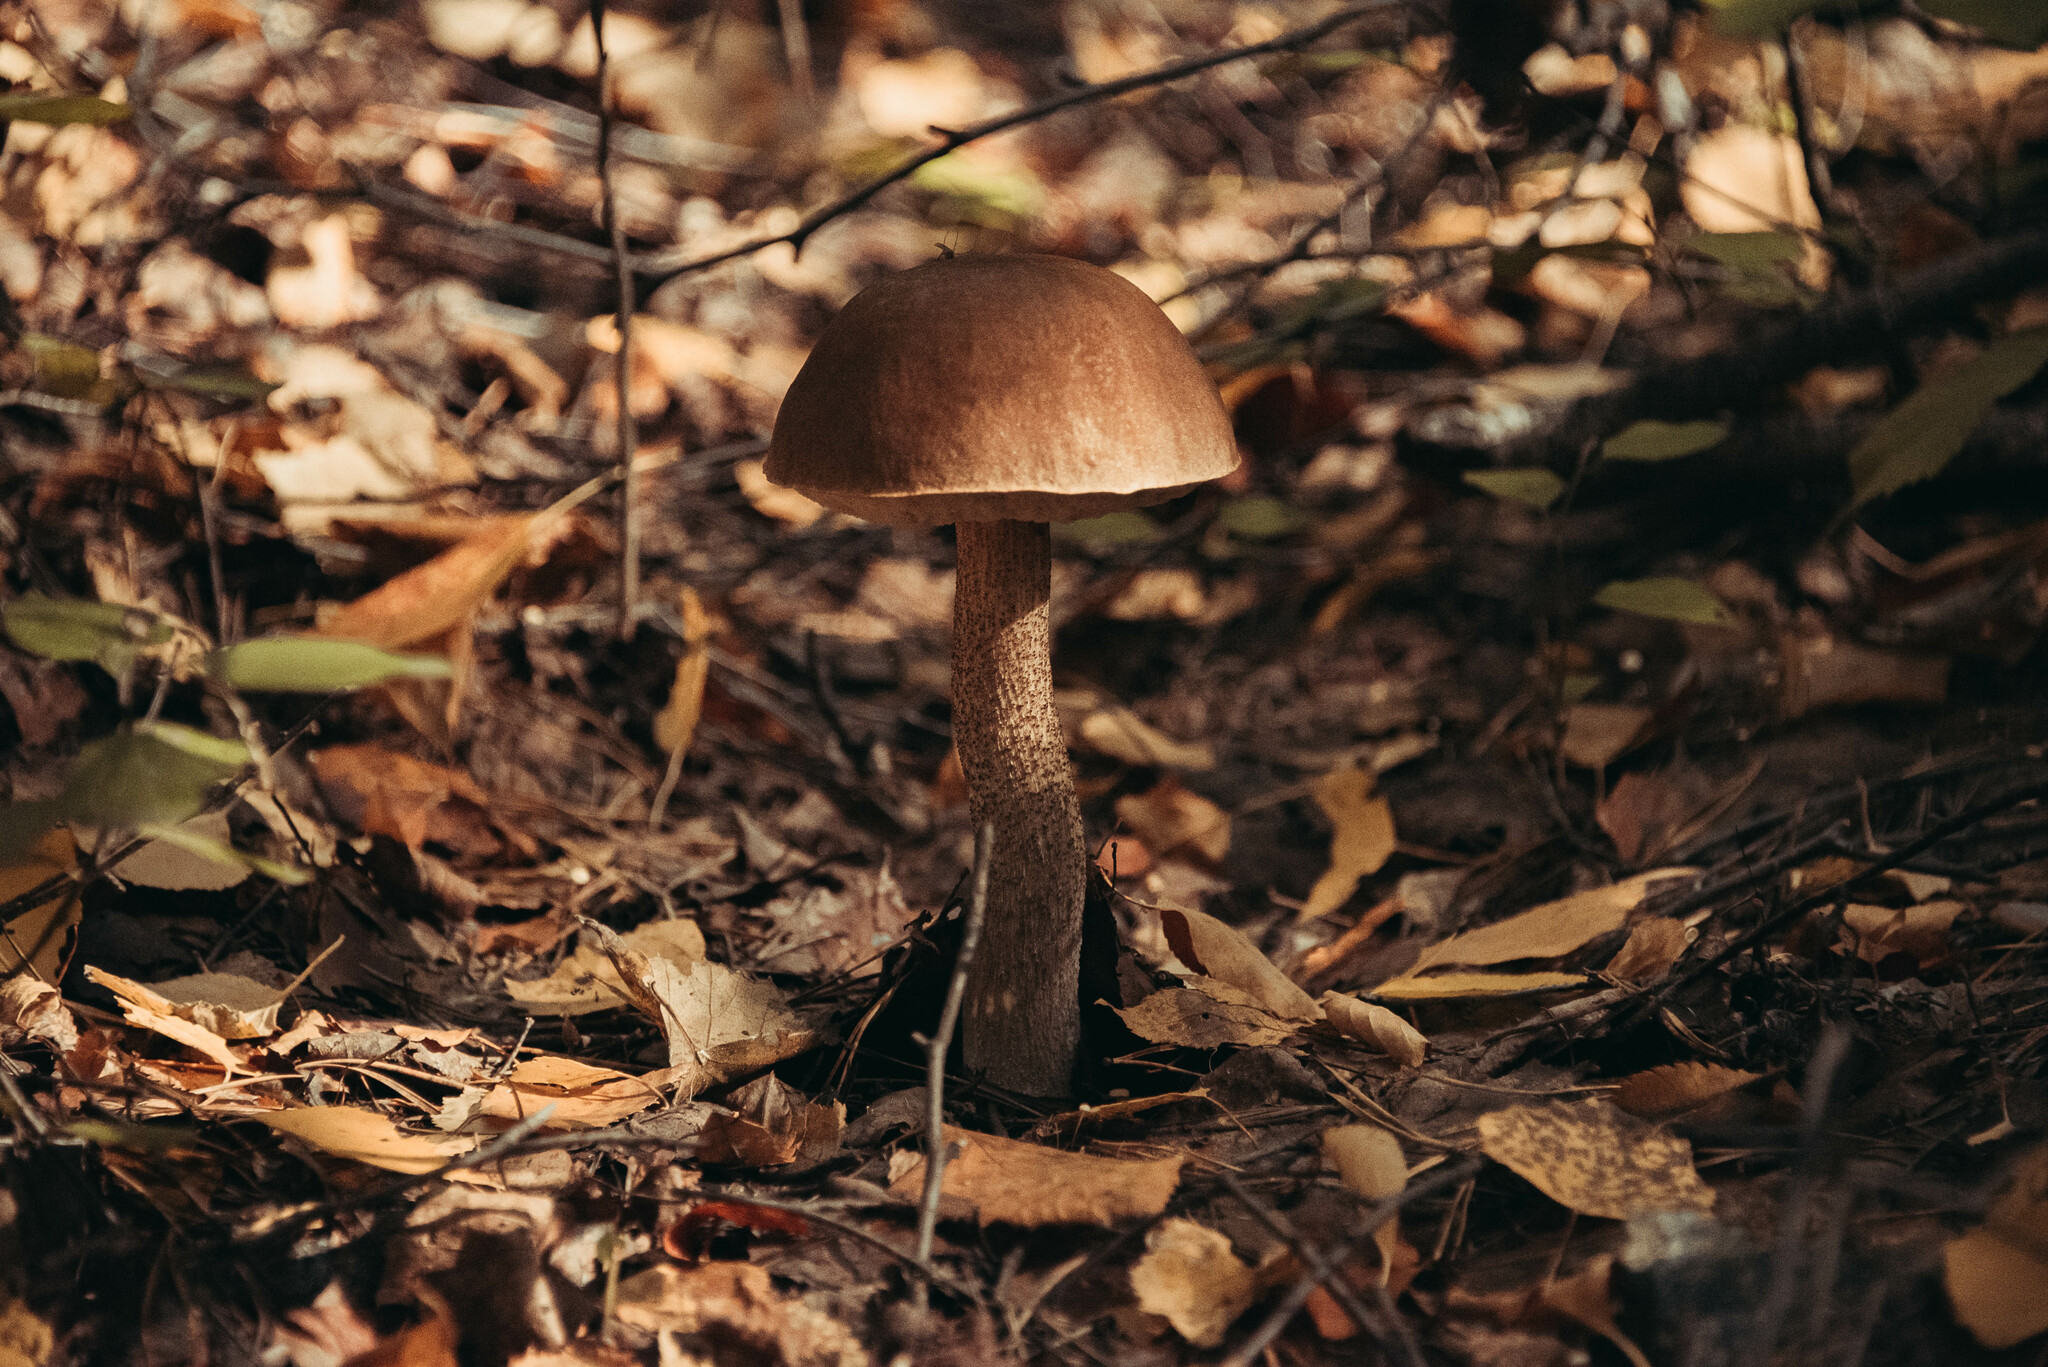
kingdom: Fungi
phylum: Basidiomycota
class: Agaricomycetes
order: Boletales
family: Boletaceae
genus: Leccinum
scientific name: Leccinum scabrum
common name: Blushing bolete
